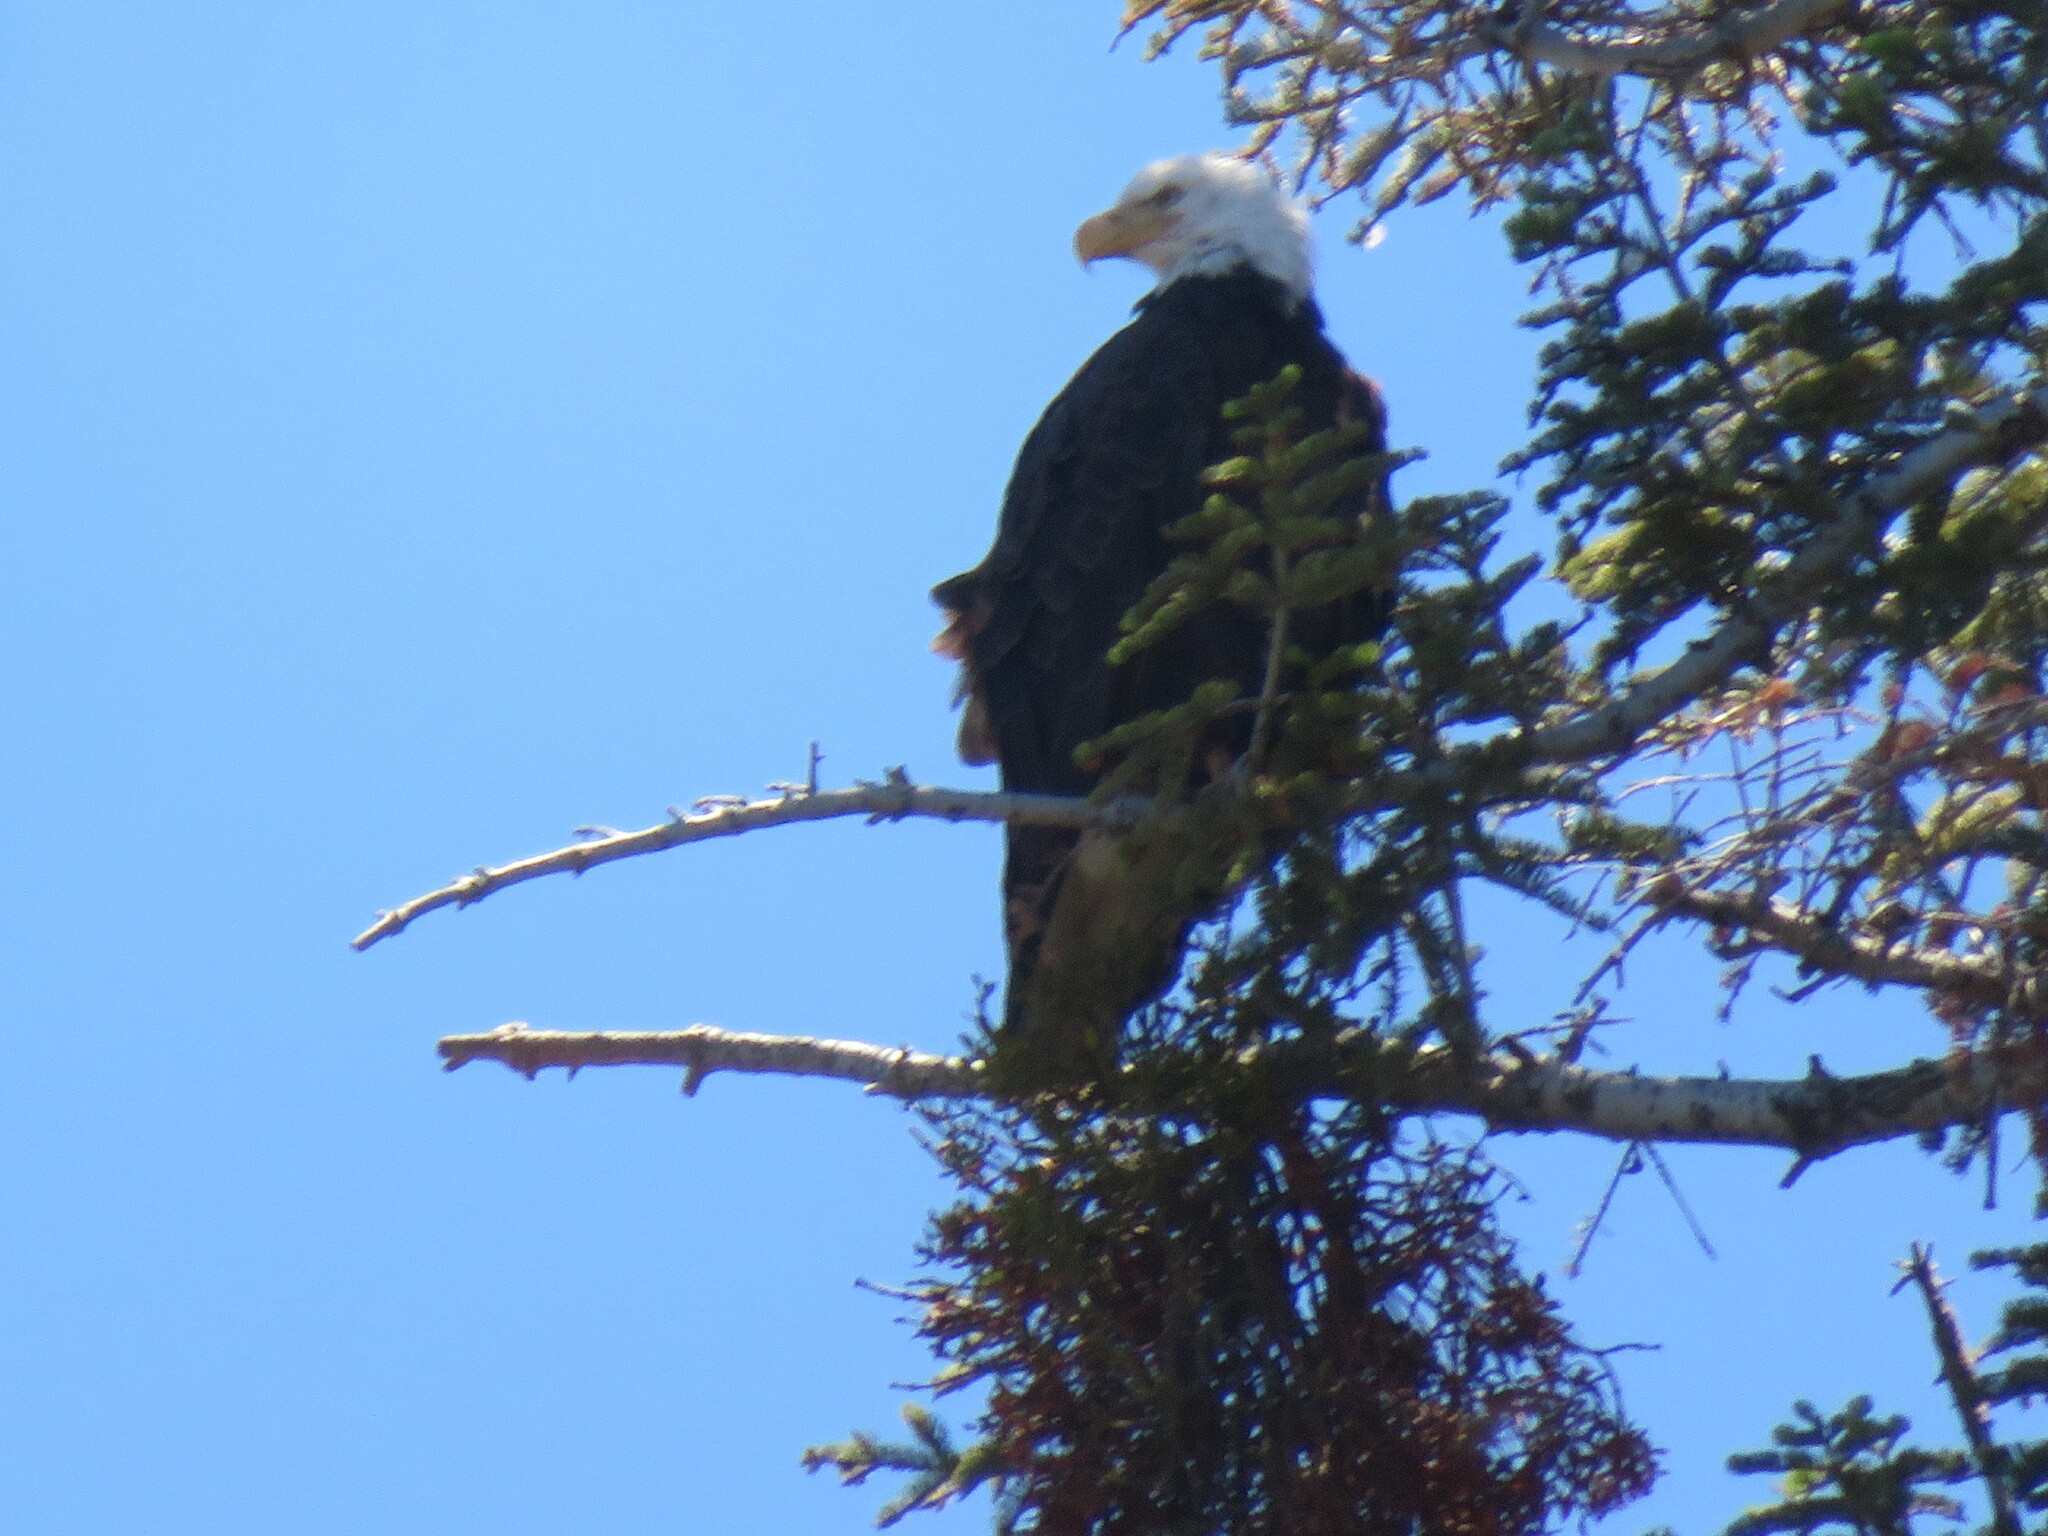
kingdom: Animalia
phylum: Chordata
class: Aves
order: Accipitriformes
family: Accipitridae
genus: Haliaeetus
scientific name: Haliaeetus leucocephalus
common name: Bald eagle
